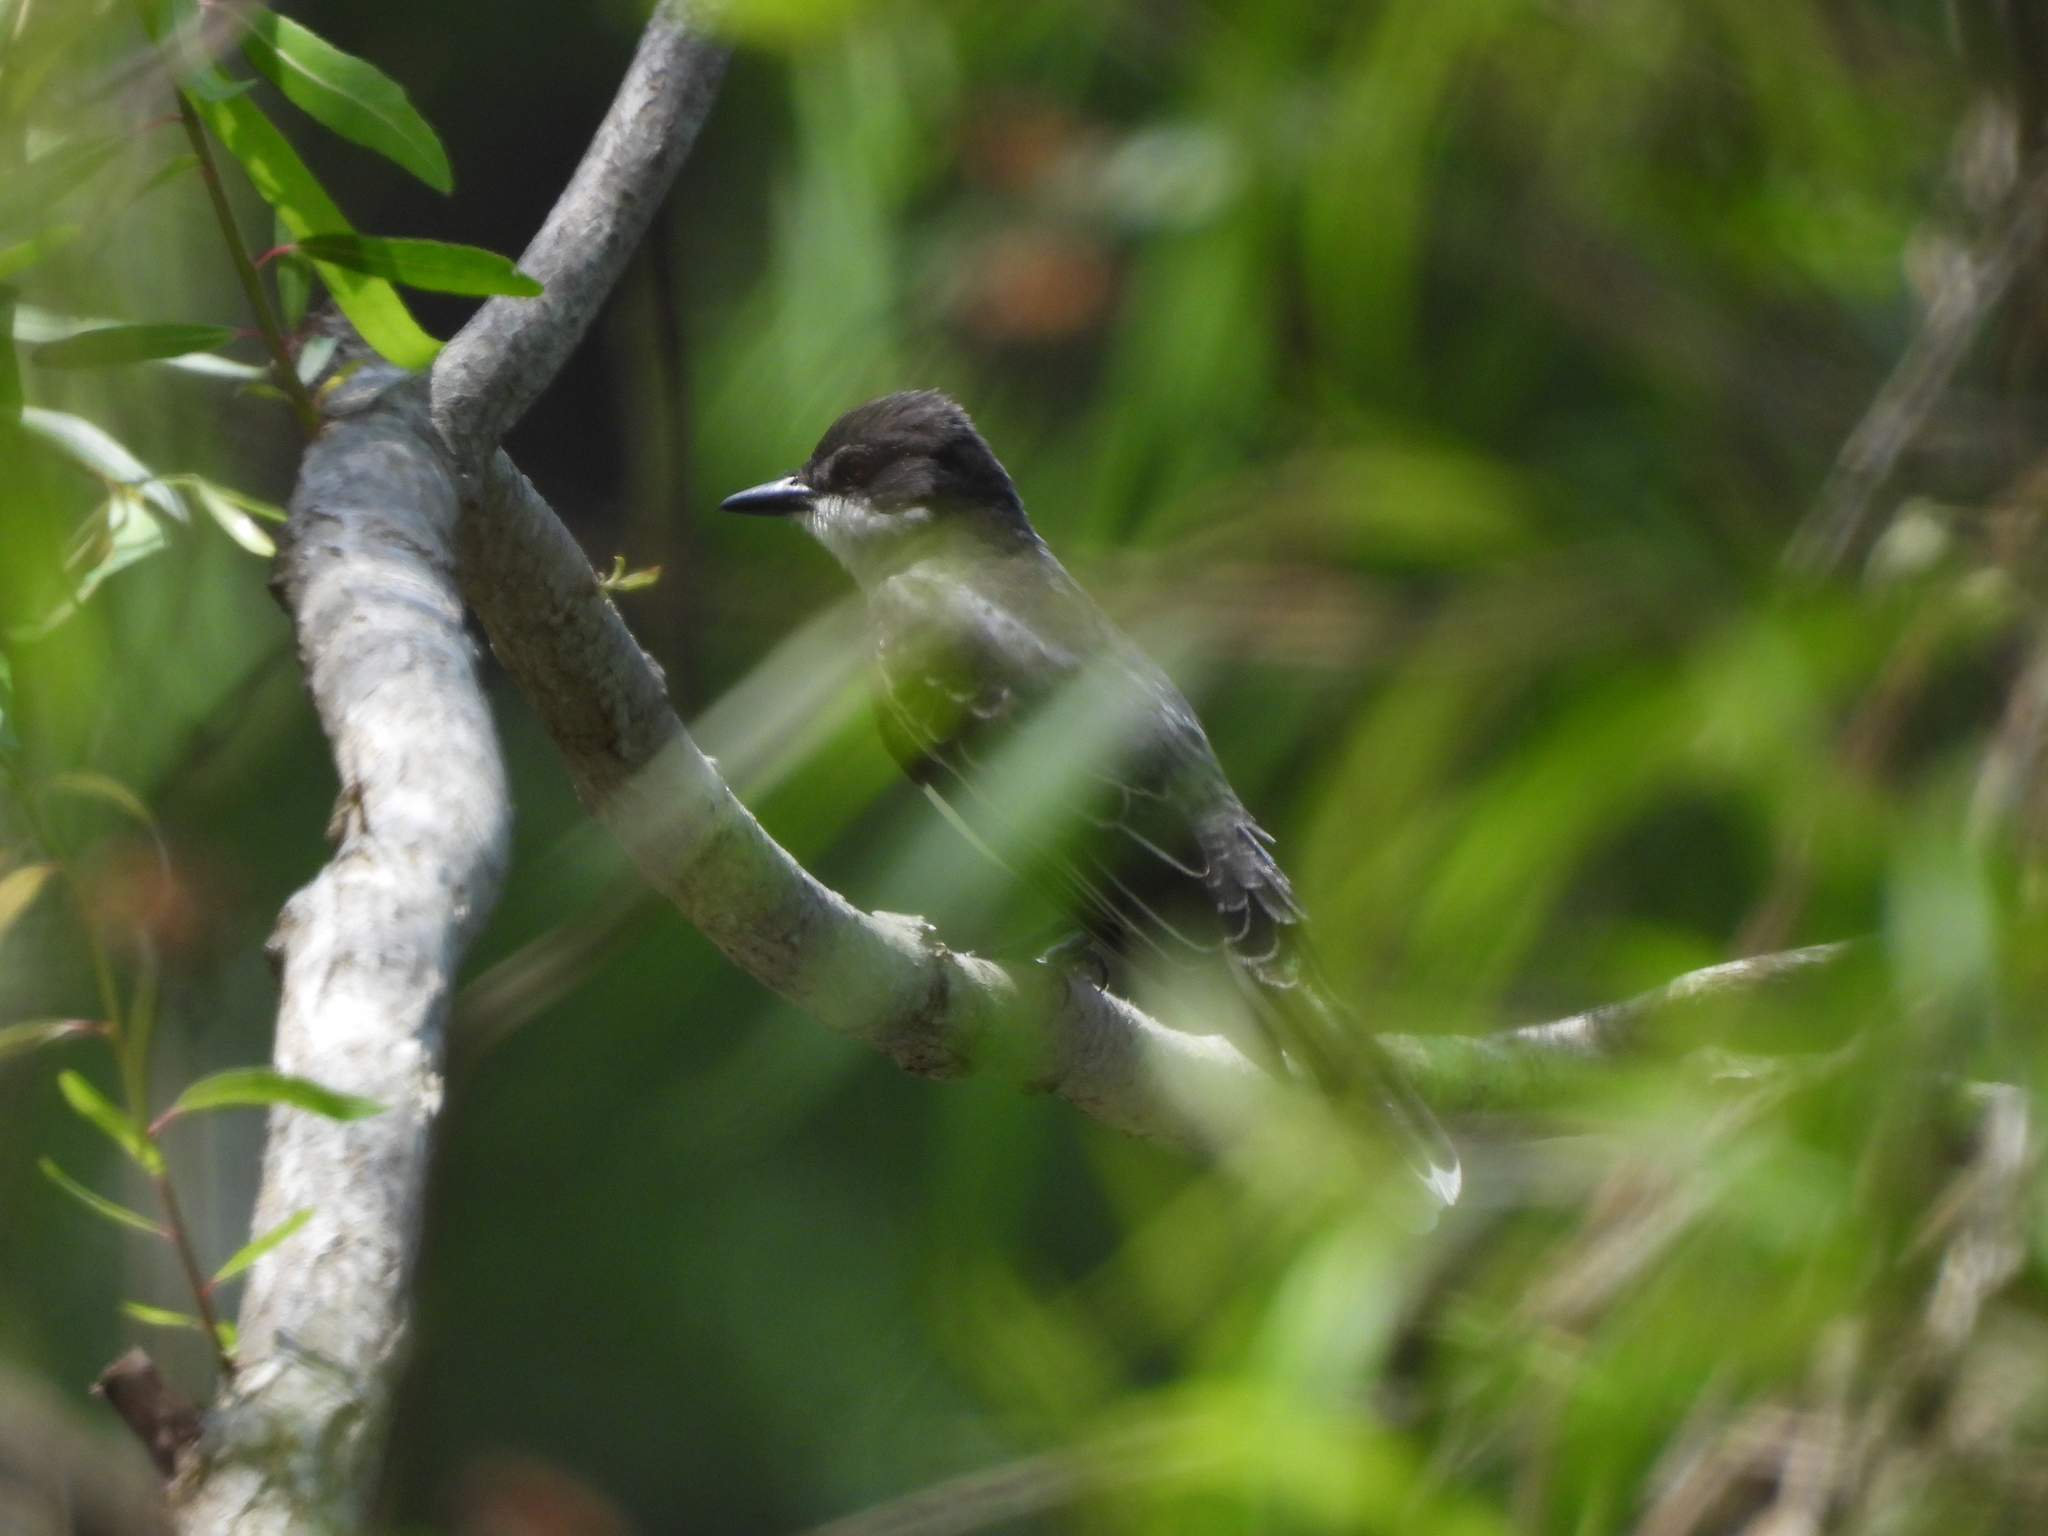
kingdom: Animalia
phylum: Chordata
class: Aves
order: Passeriformes
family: Tyrannidae
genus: Tyrannus
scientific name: Tyrannus tyrannus
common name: Eastern kingbird
